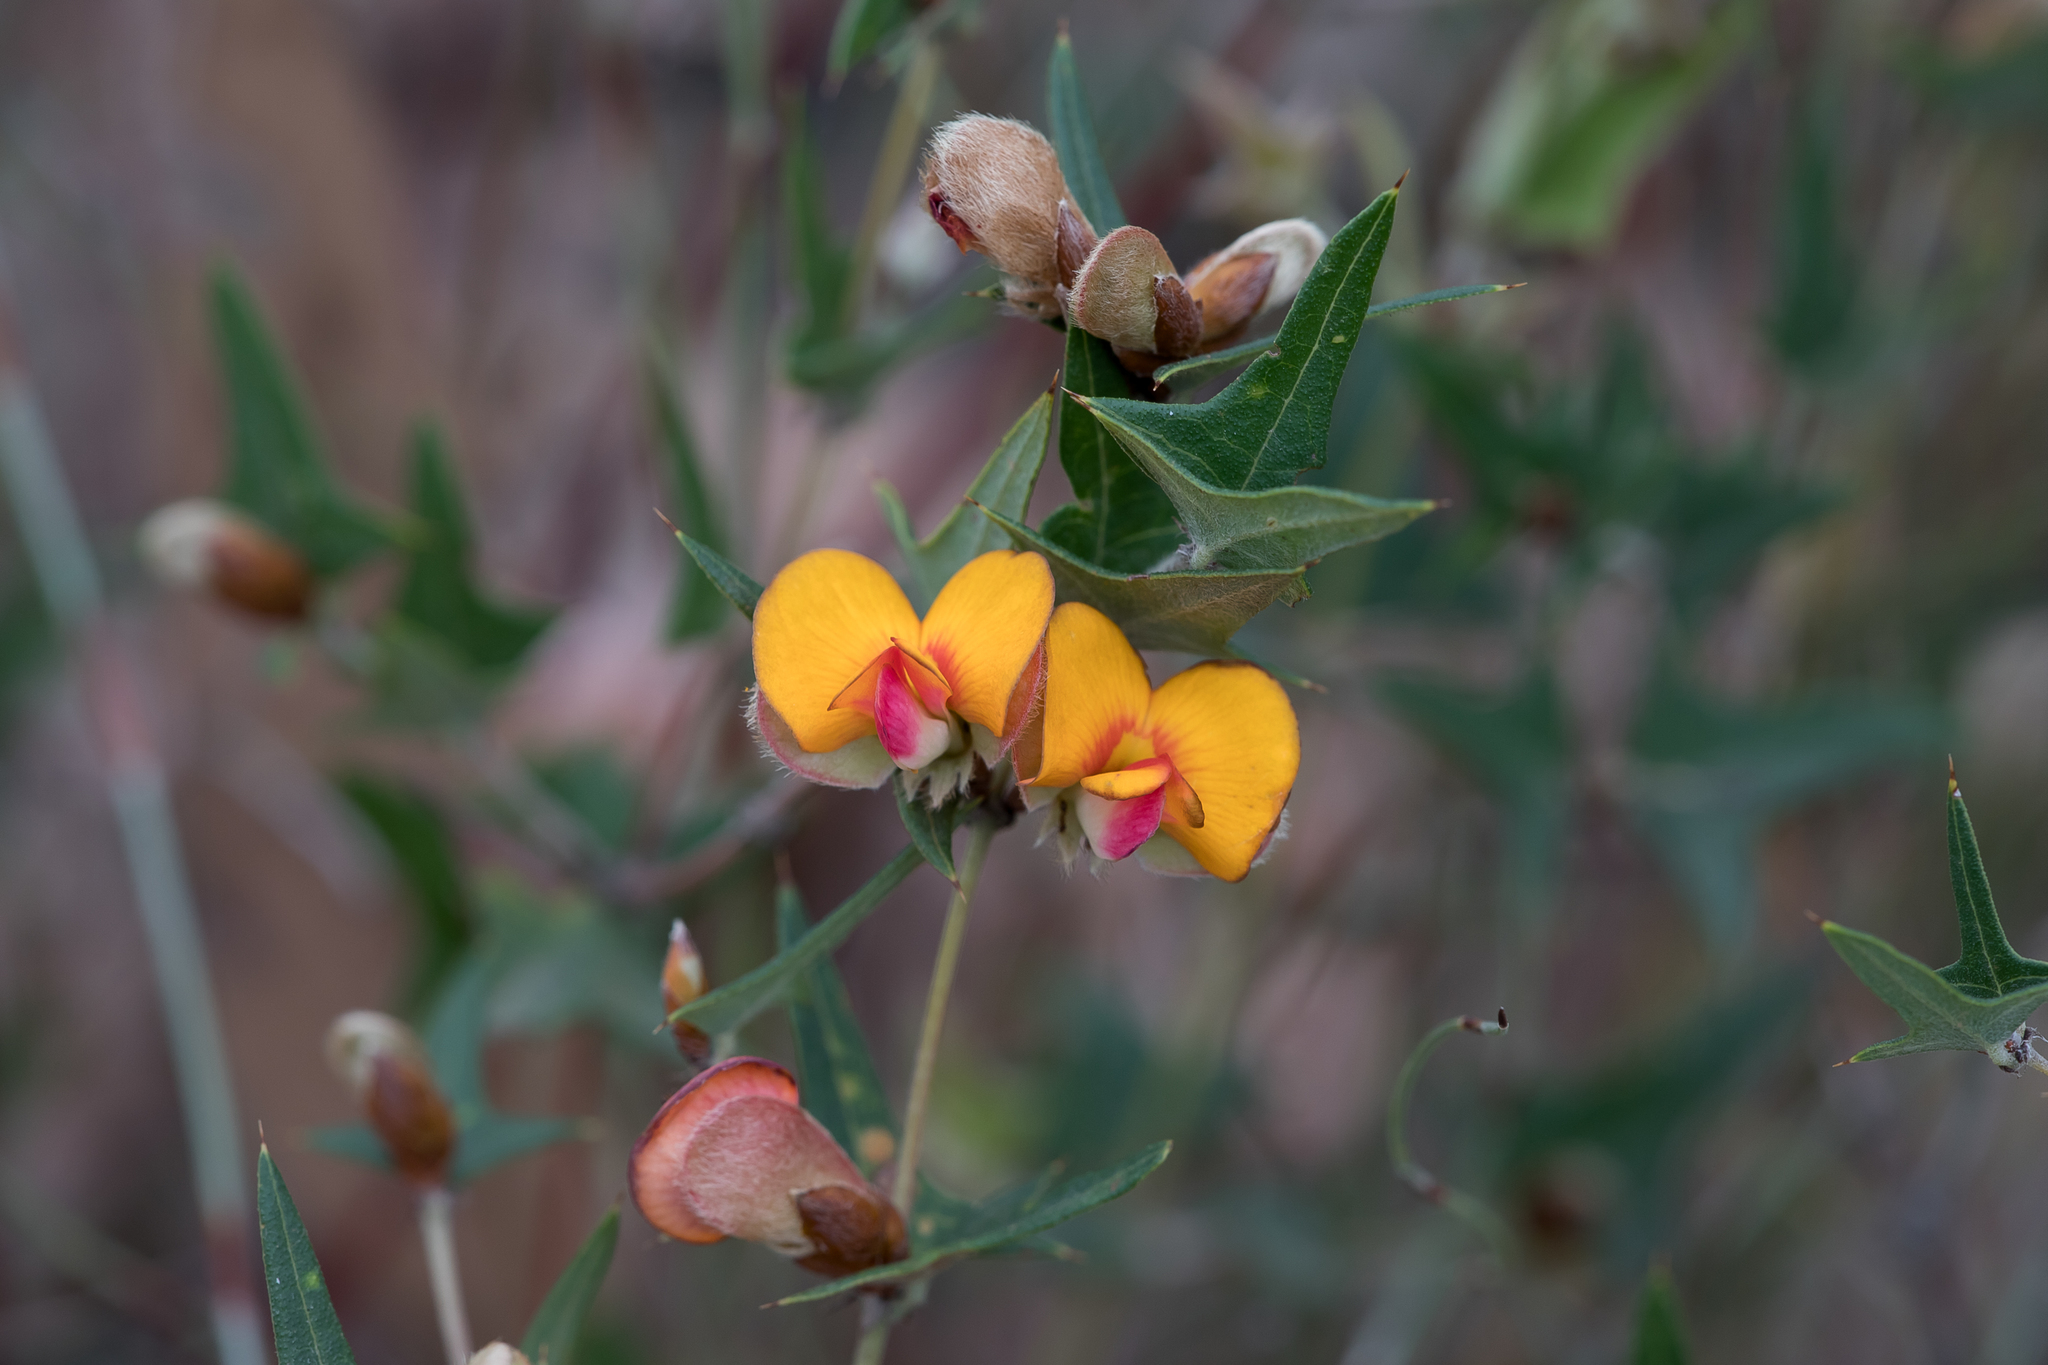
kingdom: Plantae
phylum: Tracheophyta
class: Magnoliopsida
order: Fabales
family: Fabaceae
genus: Platylobium
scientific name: Platylobium obtusangulum
